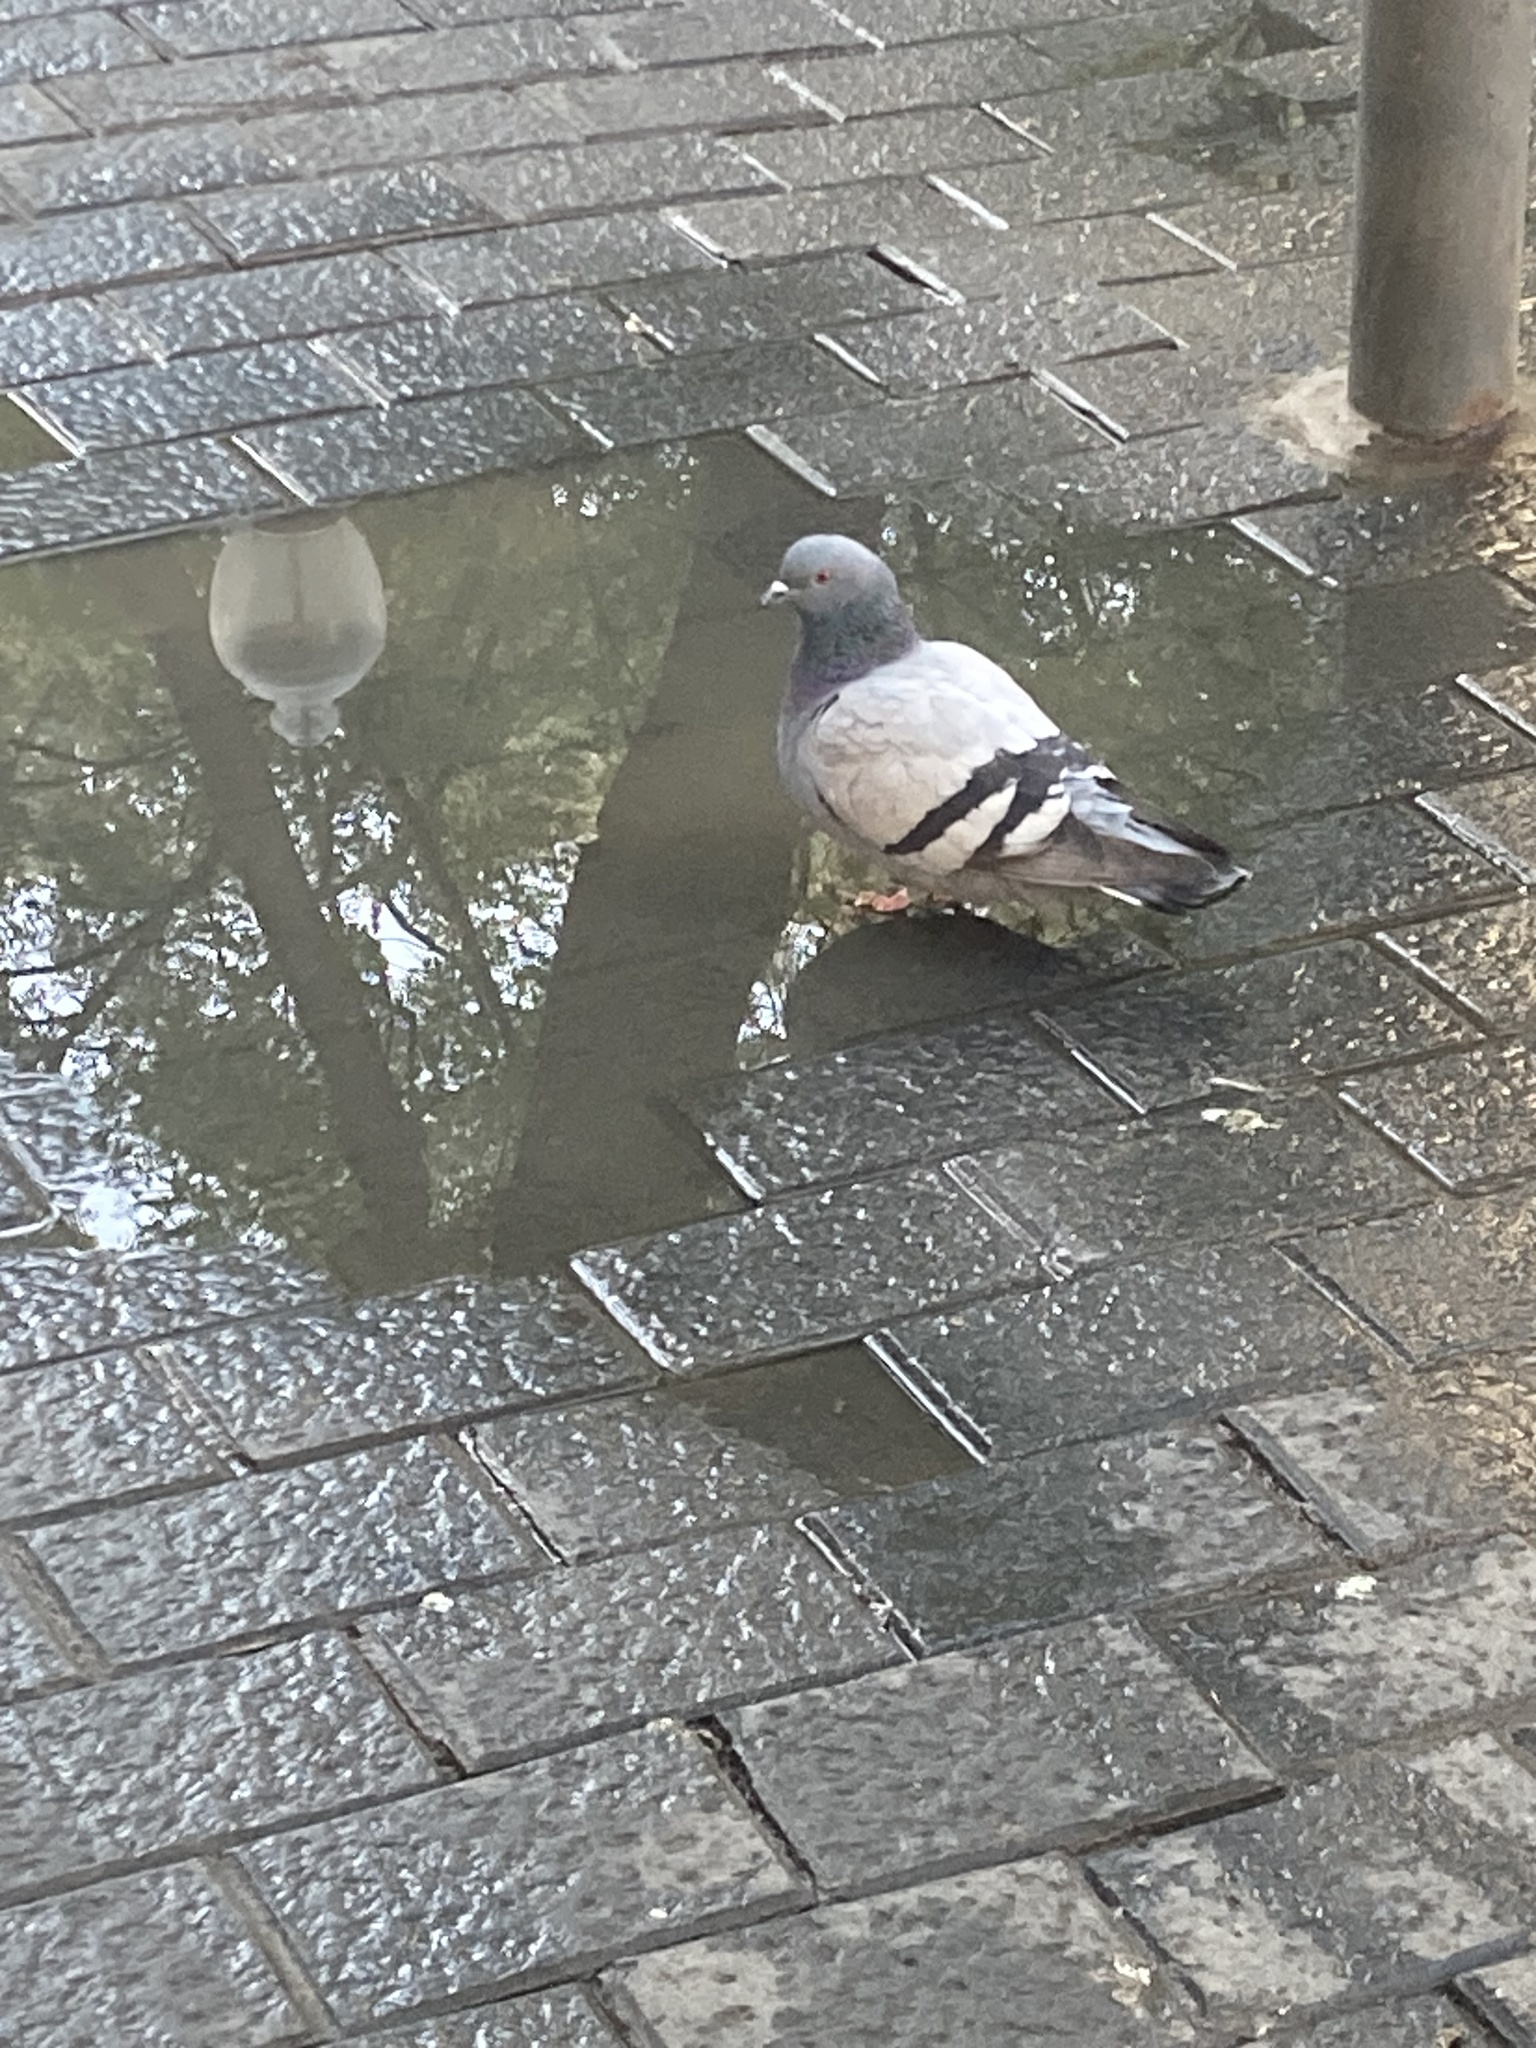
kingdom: Animalia
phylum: Chordata
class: Aves
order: Columbiformes
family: Columbidae
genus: Columba
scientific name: Columba livia
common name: Rock pigeon
